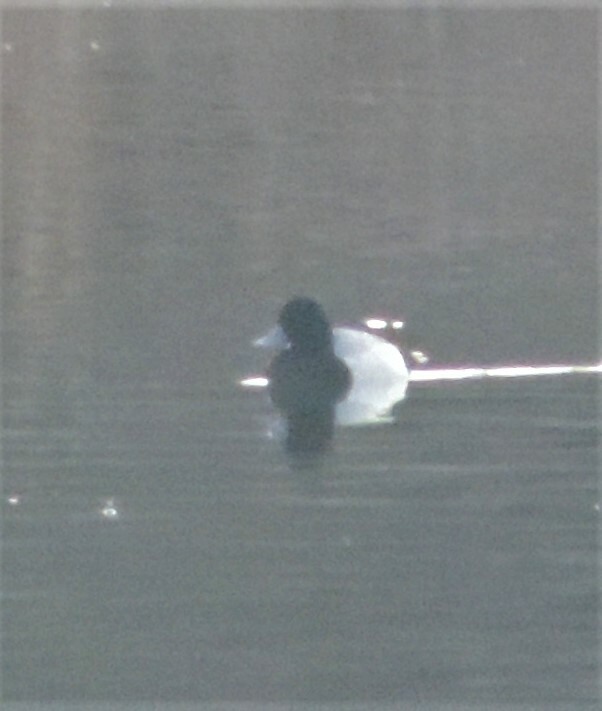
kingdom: Animalia
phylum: Chordata
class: Aves
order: Anseriformes
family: Anatidae
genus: Aythya
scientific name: Aythya marila
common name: Greater scaup
